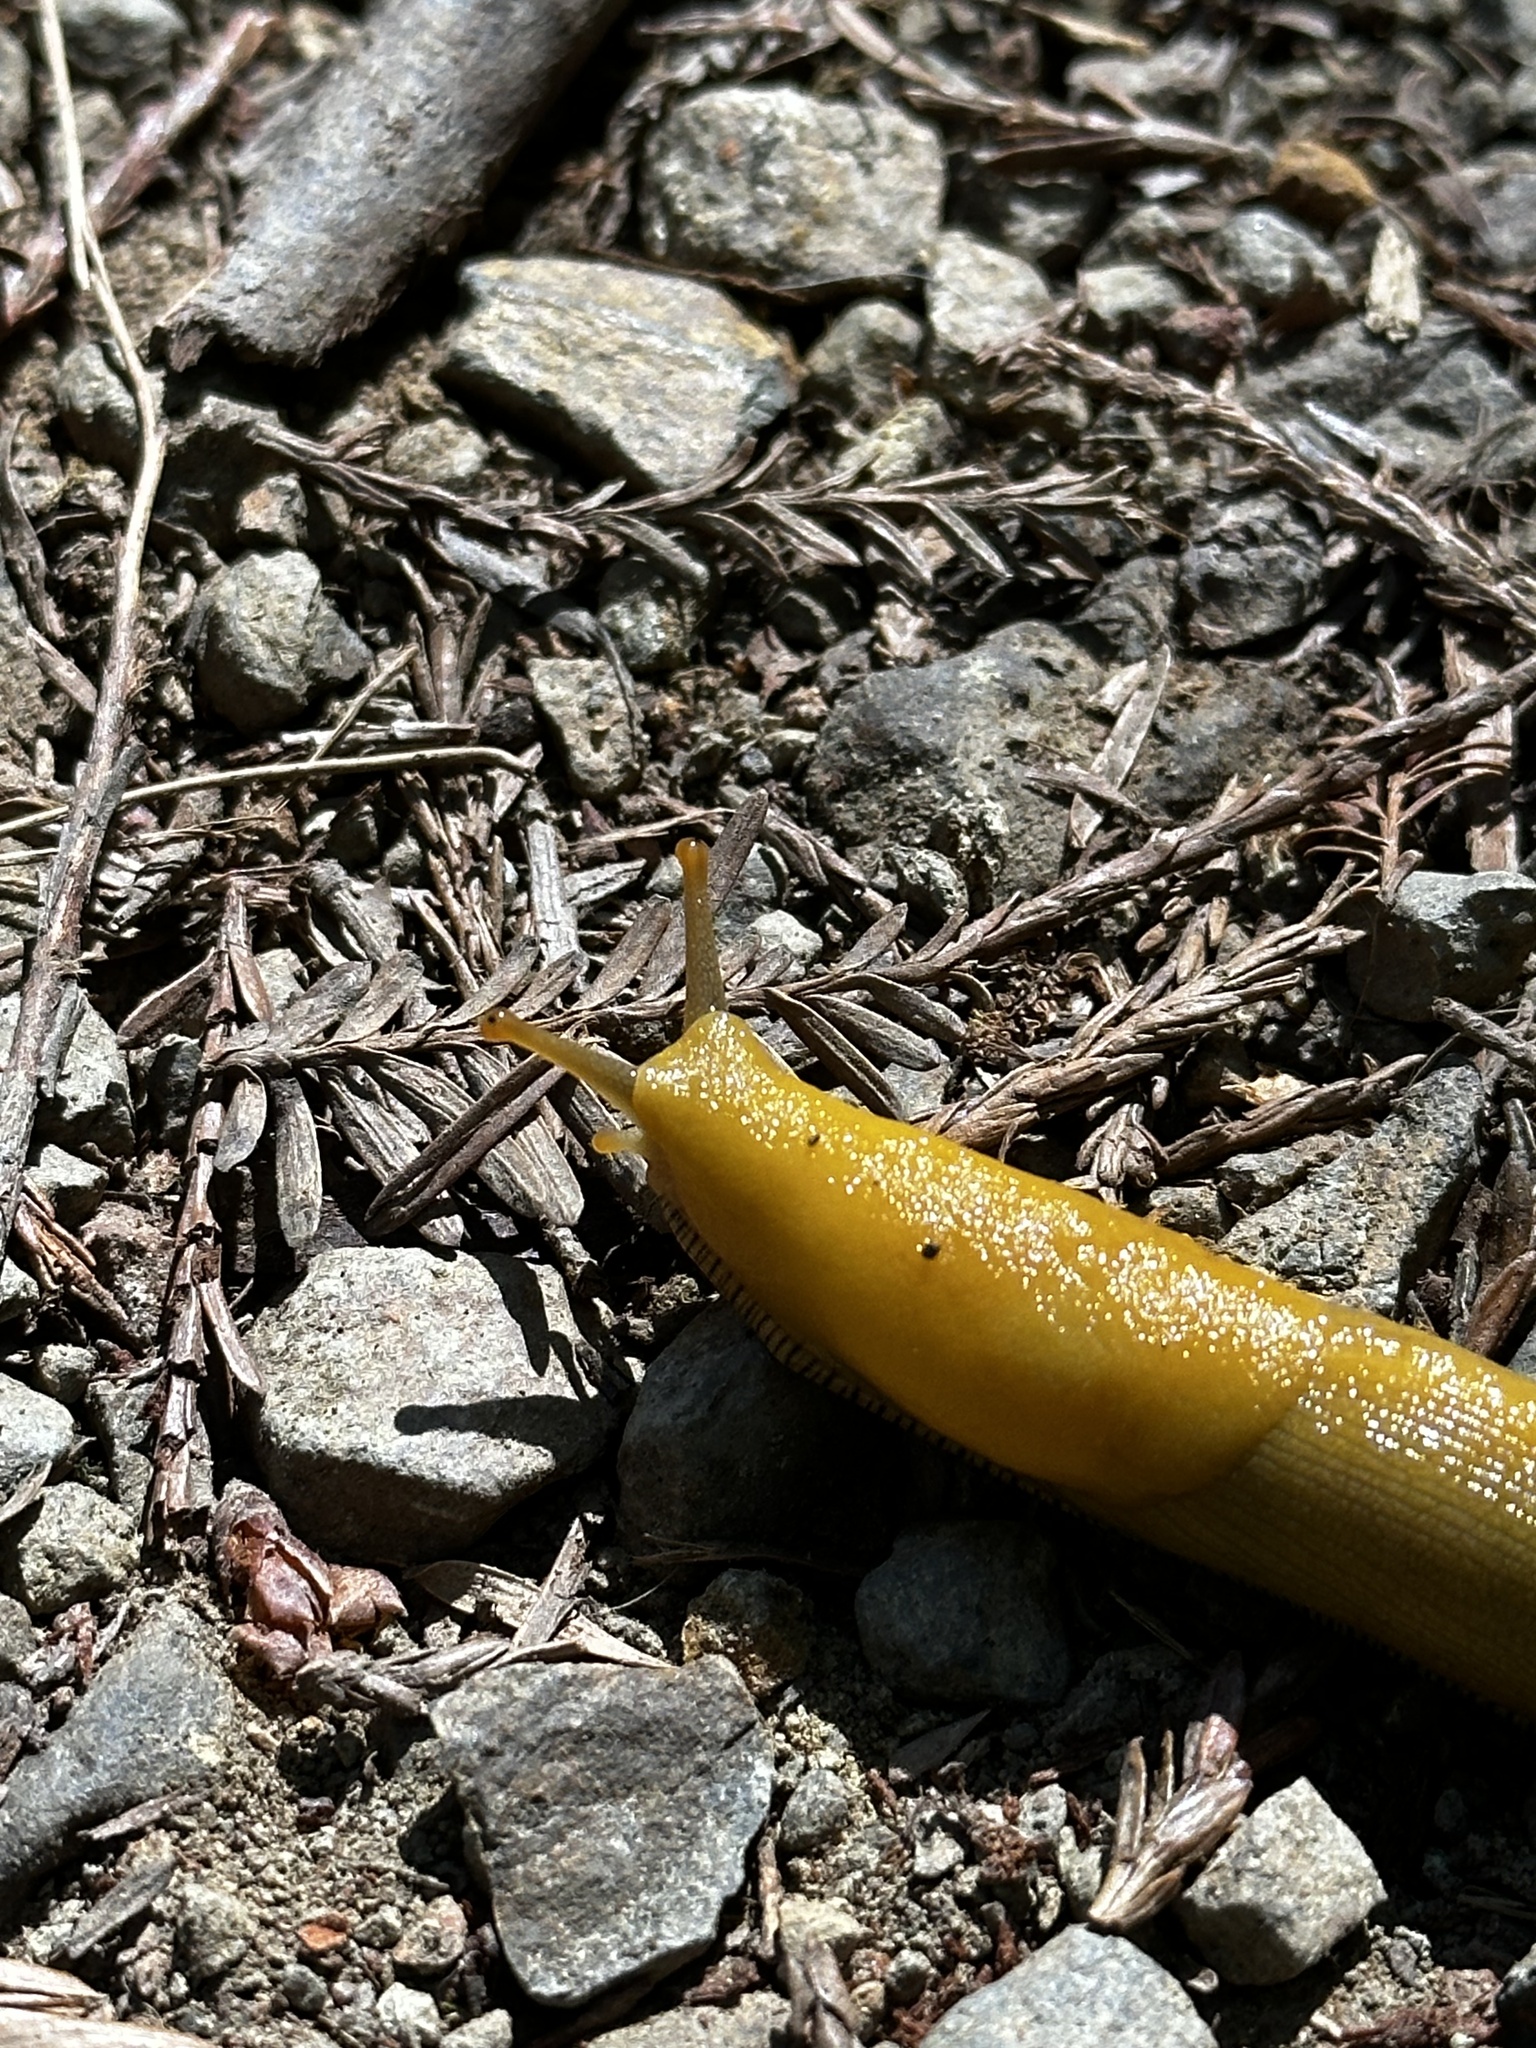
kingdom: Animalia
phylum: Mollusca
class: Gastropoda
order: Stylommatophora
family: Ariolimacidae
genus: Ariolimax
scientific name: Ariolimax buttoni
